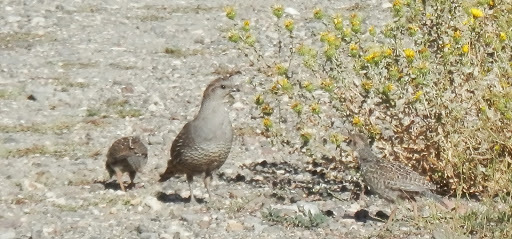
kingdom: Animalia
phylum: Chordata
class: Aves
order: Galliformes
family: Odontophoridae
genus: Callipepla
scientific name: Callipepla californica
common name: California quail
